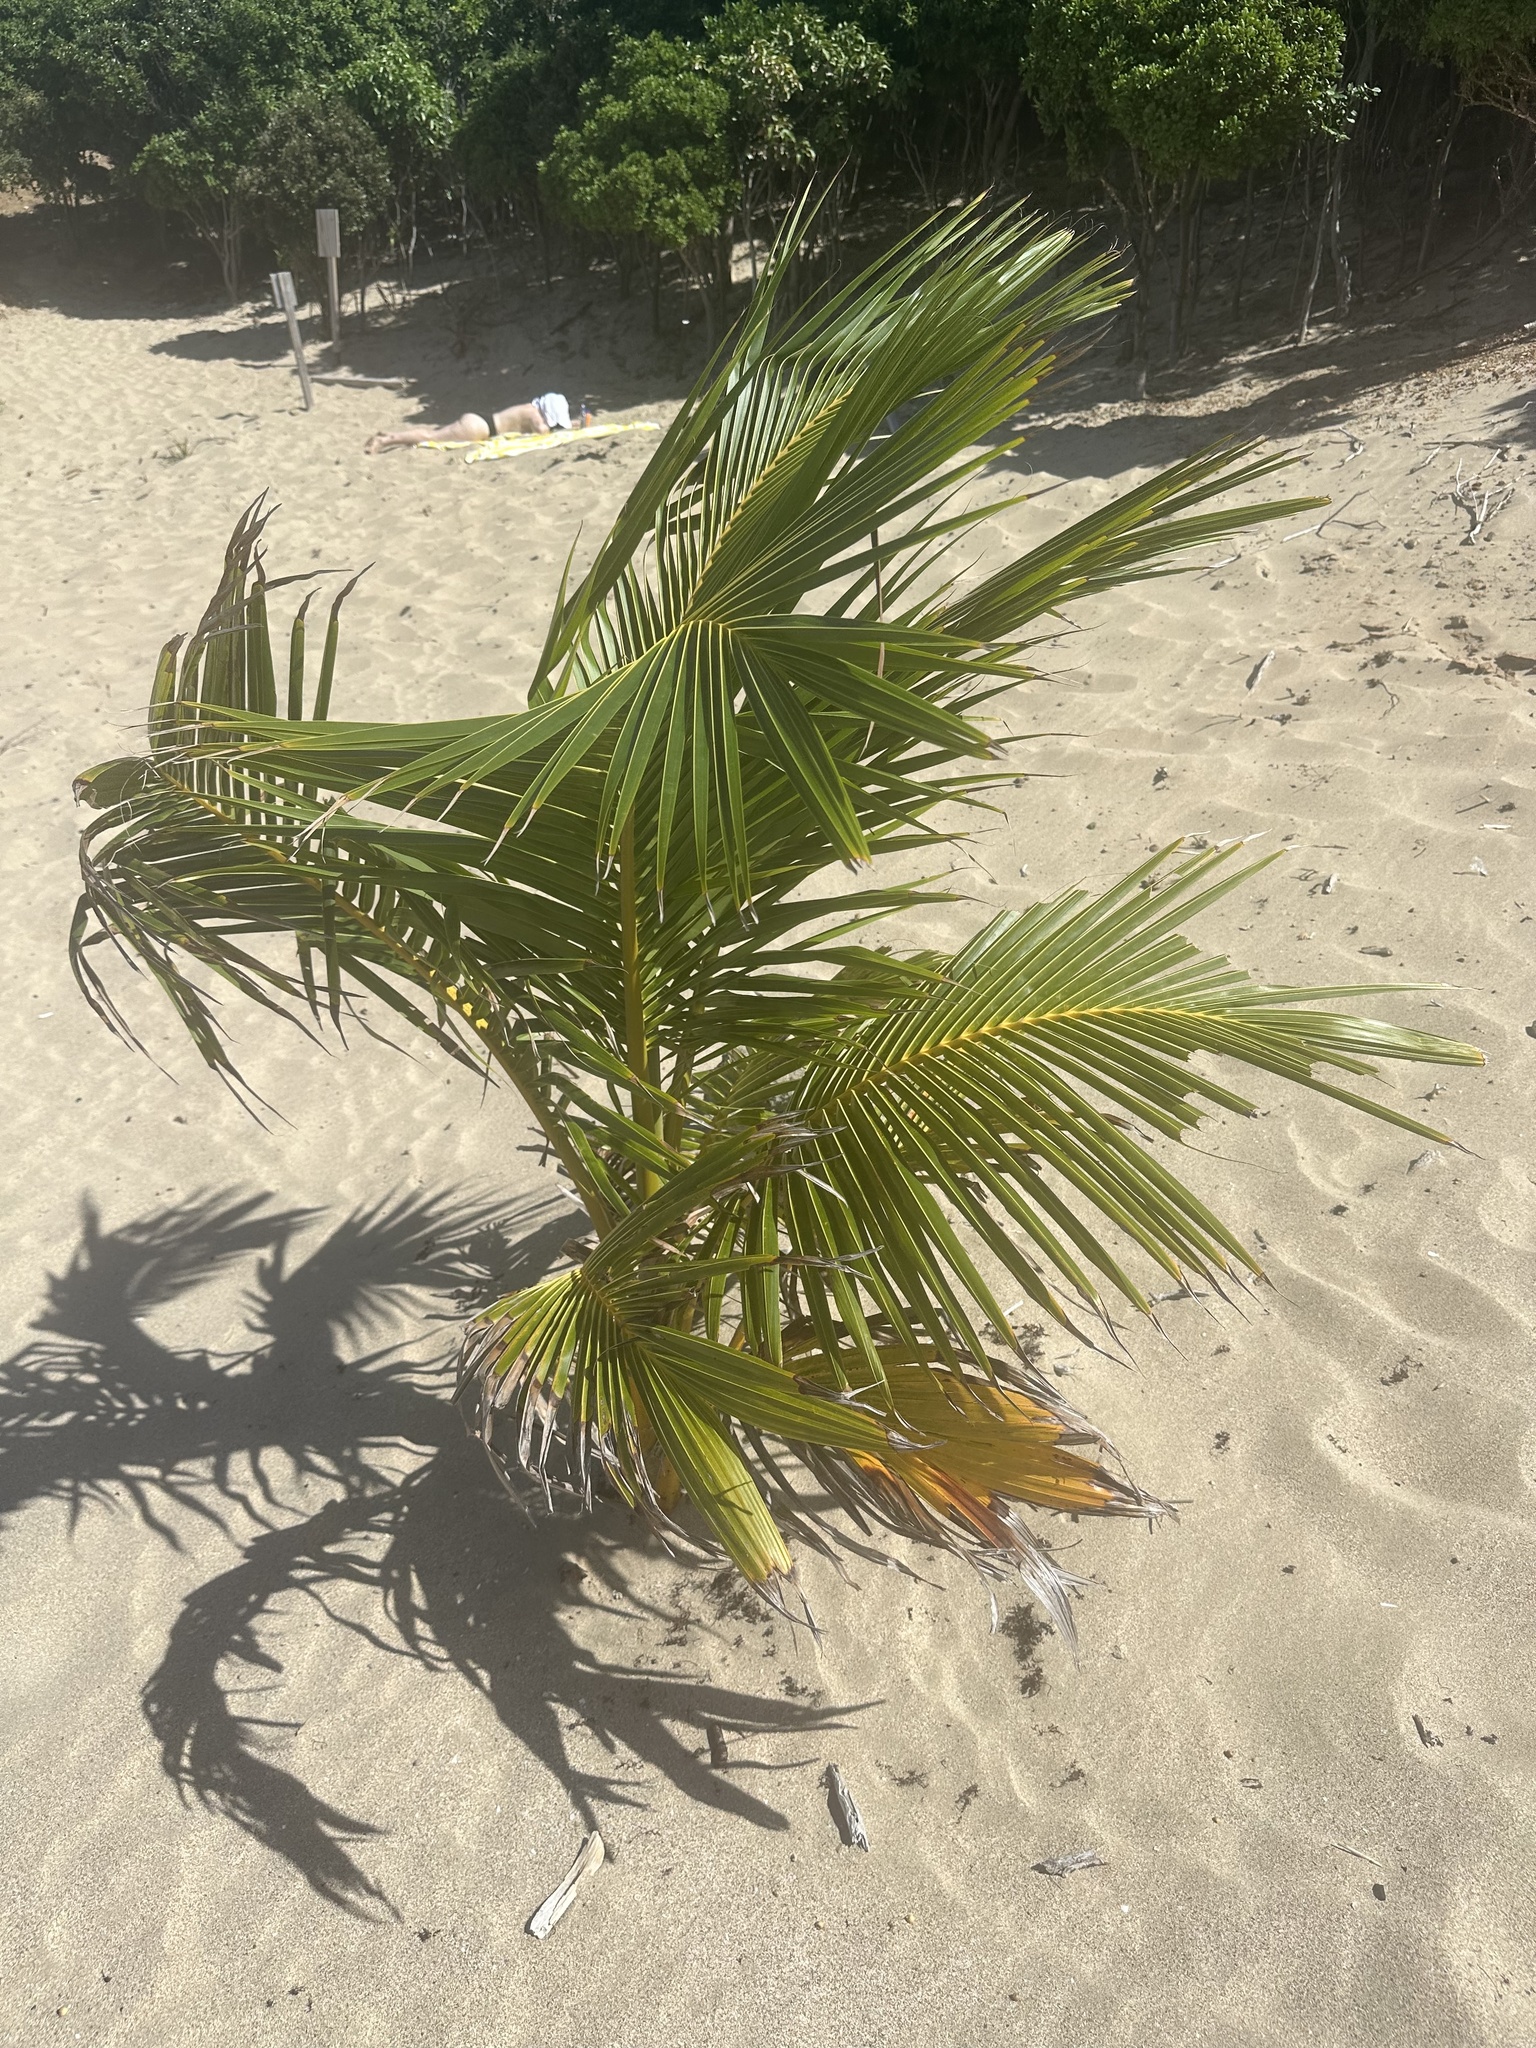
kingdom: Plantae
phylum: Tracheophyta
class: Liliopsida
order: Arecales
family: Arecaceae
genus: Cocos
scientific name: Cocos nucifera
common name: Coconut palm
